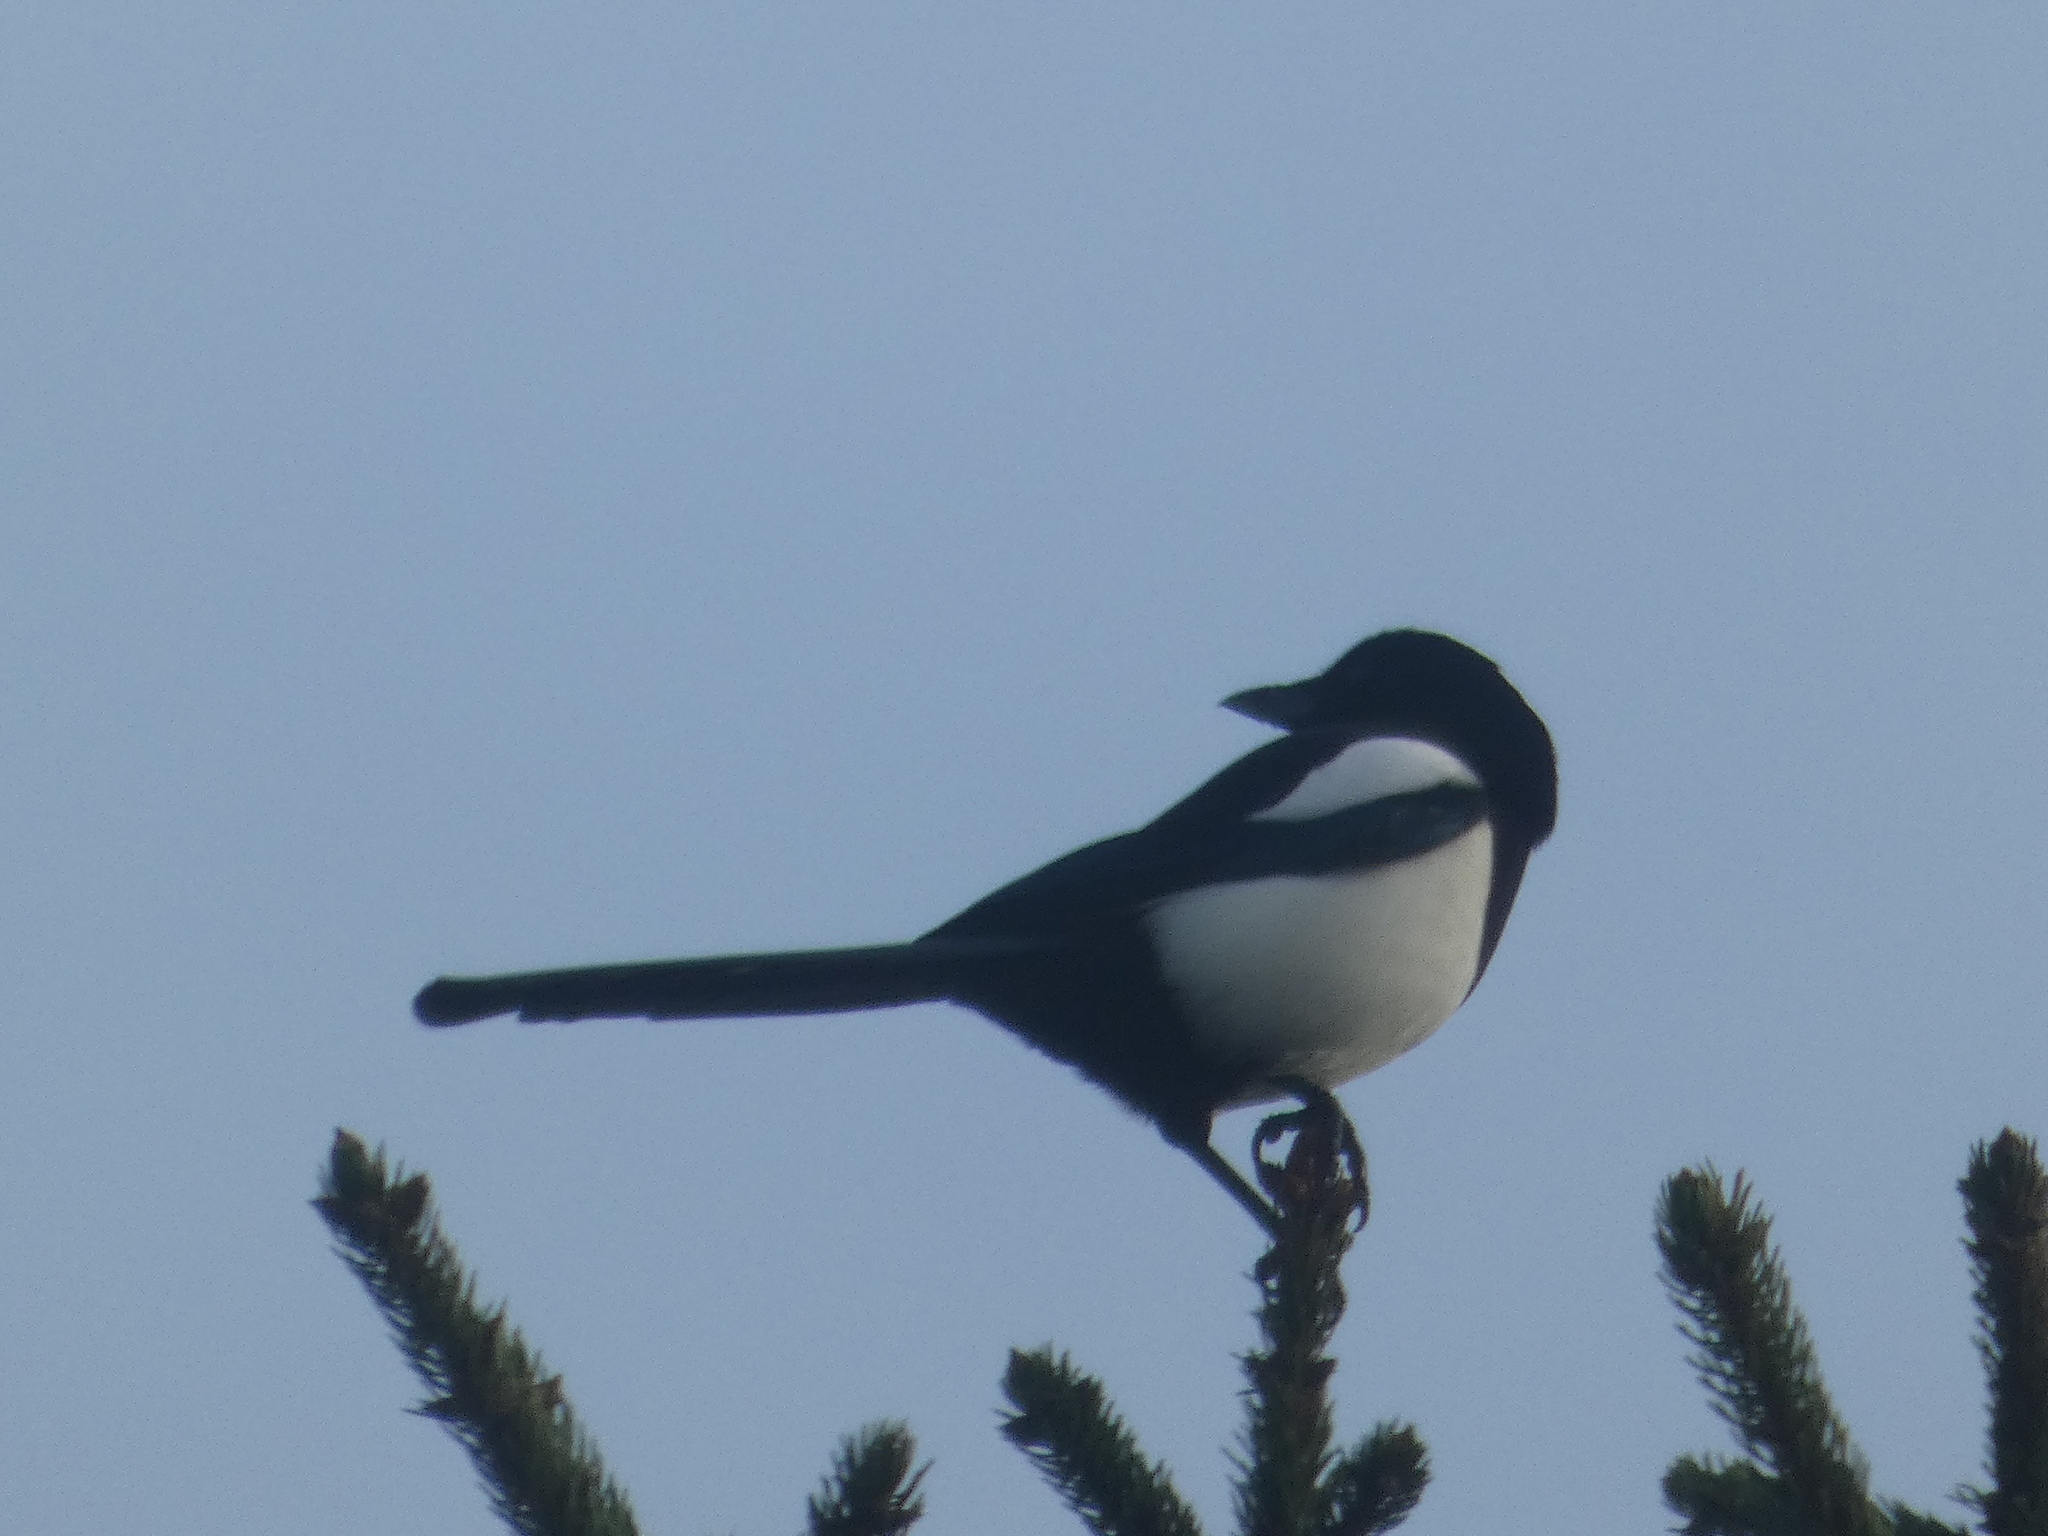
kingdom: Animalia
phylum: Chordata
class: Aves
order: Passeriformes
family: Corvidae
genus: Pica
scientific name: Pica pica
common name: Eurasian magpie
